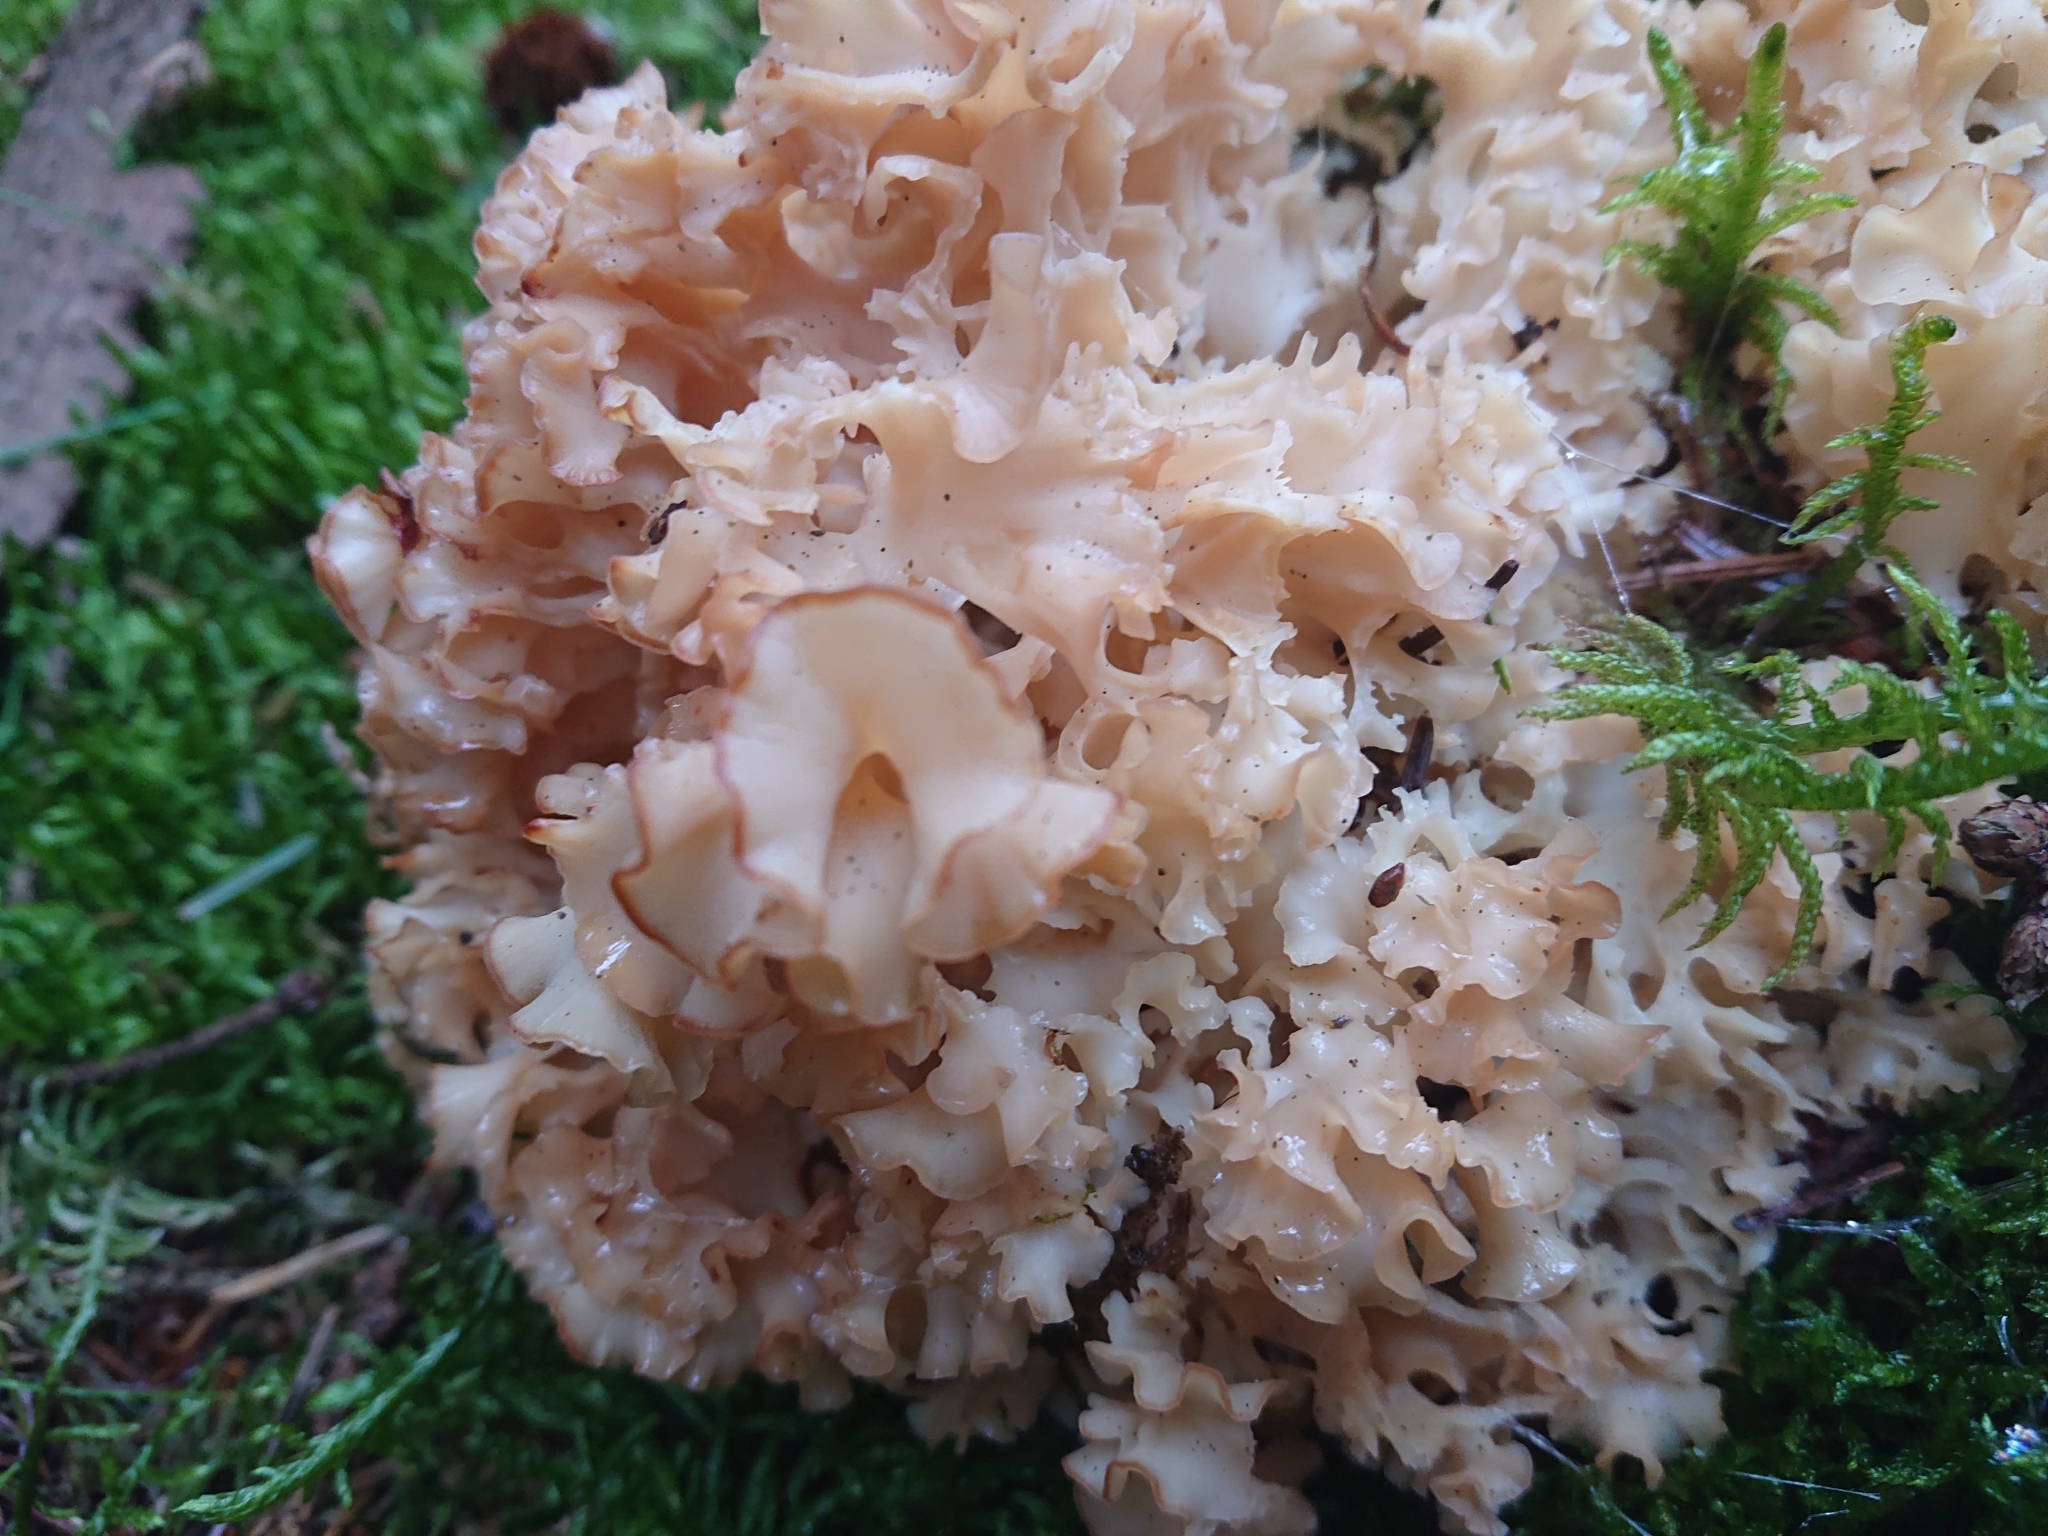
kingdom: Fungi
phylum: Basidiomycota
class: Agaricomycetes
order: Polyporales
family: Sparassidaceae
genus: Sparassis
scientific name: Sparassis crispa
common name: Brain fungus
